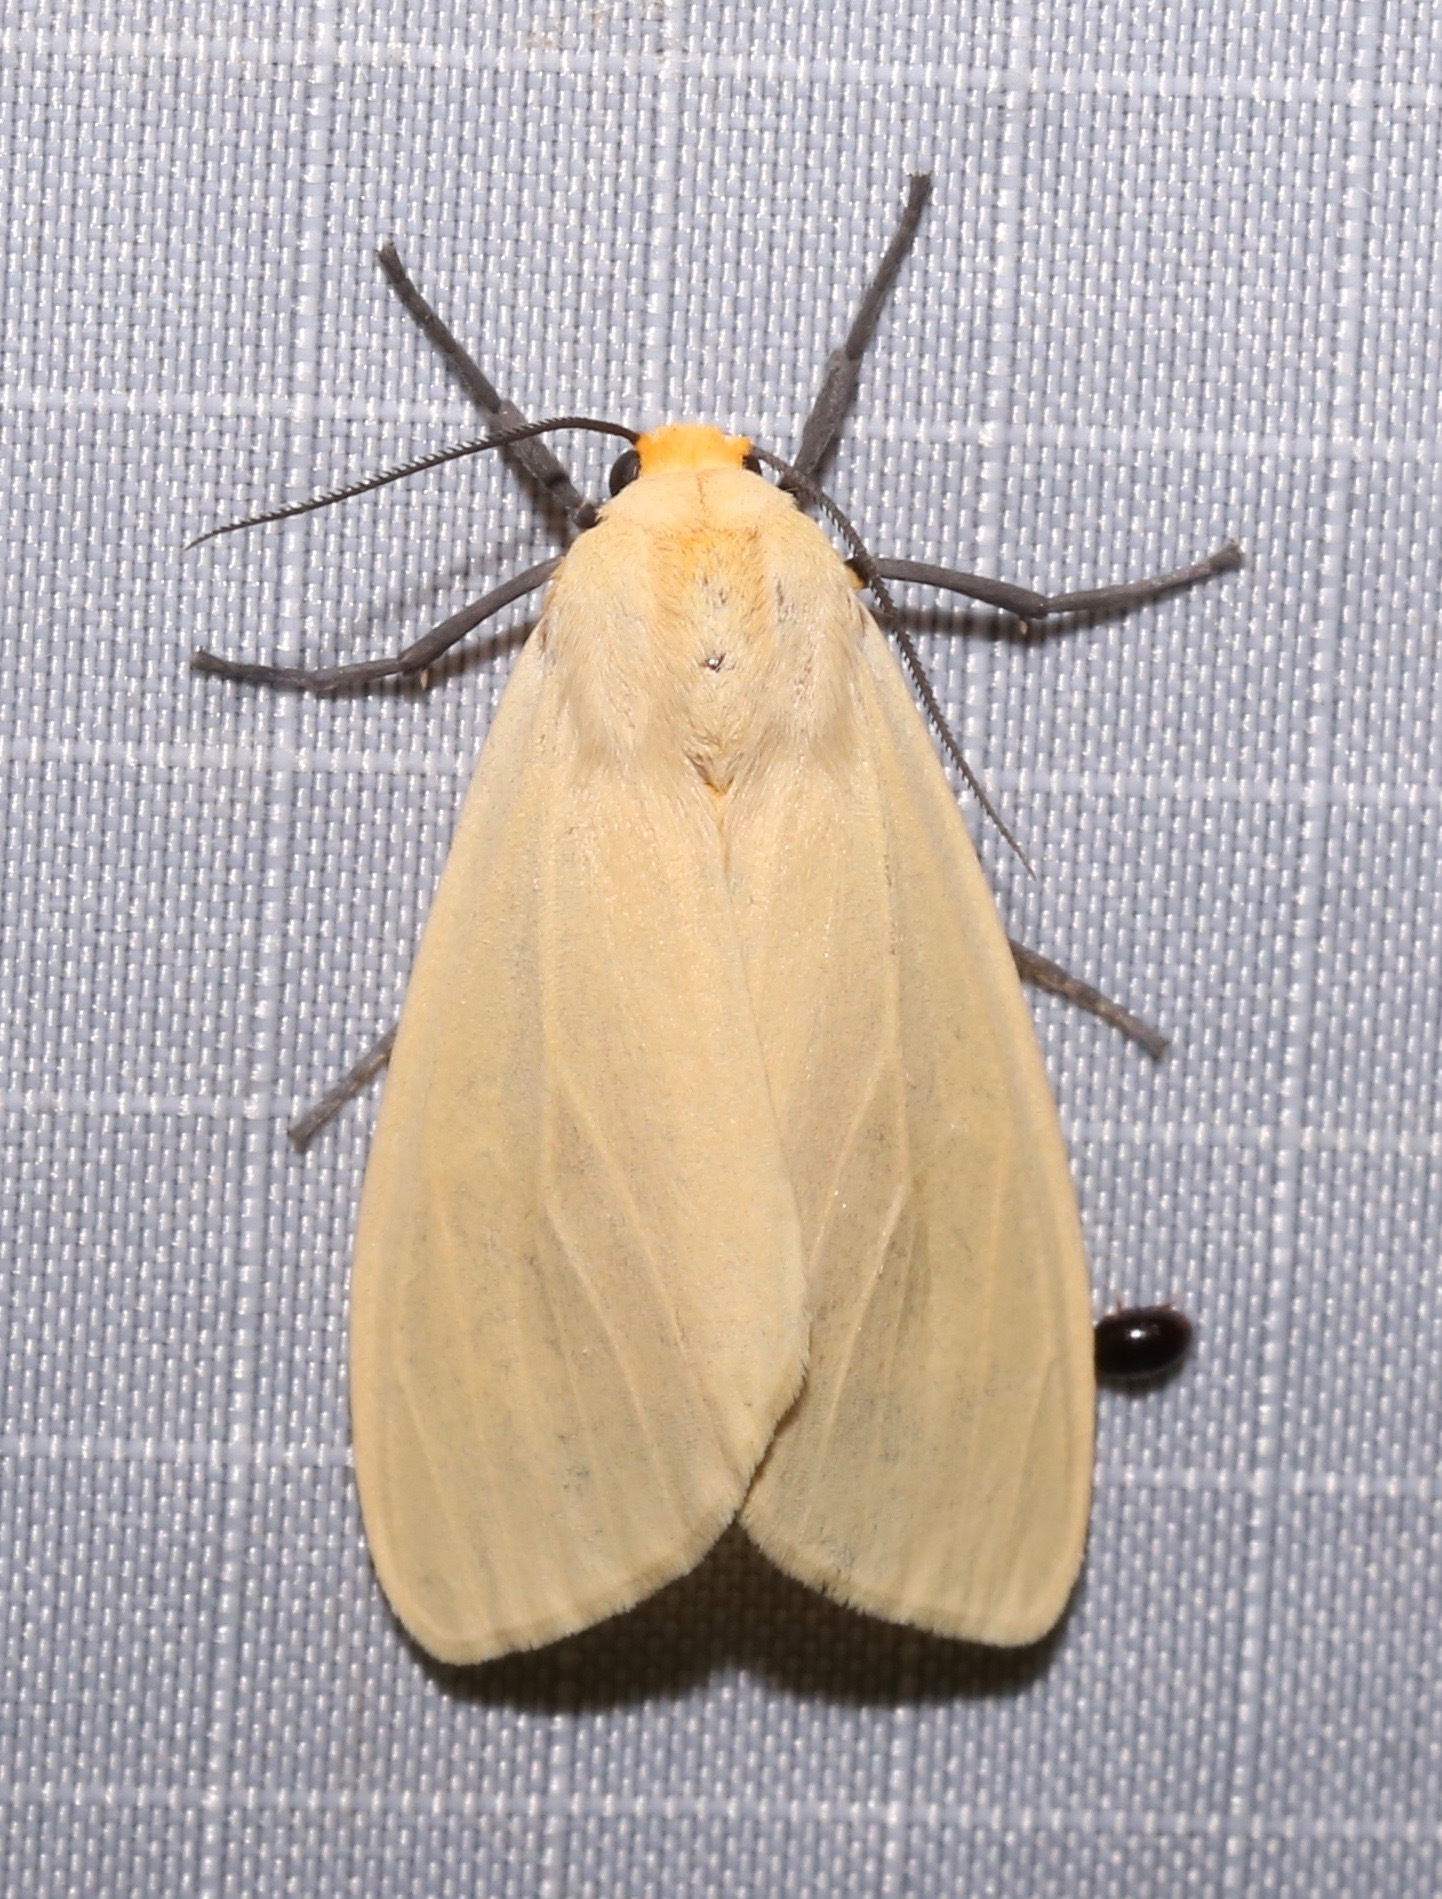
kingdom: Animalia
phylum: Arthropoda
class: Insecta
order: Lepidoptera
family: Erebidae
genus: Pareuchaetes
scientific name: Pareuchaetes insulata
